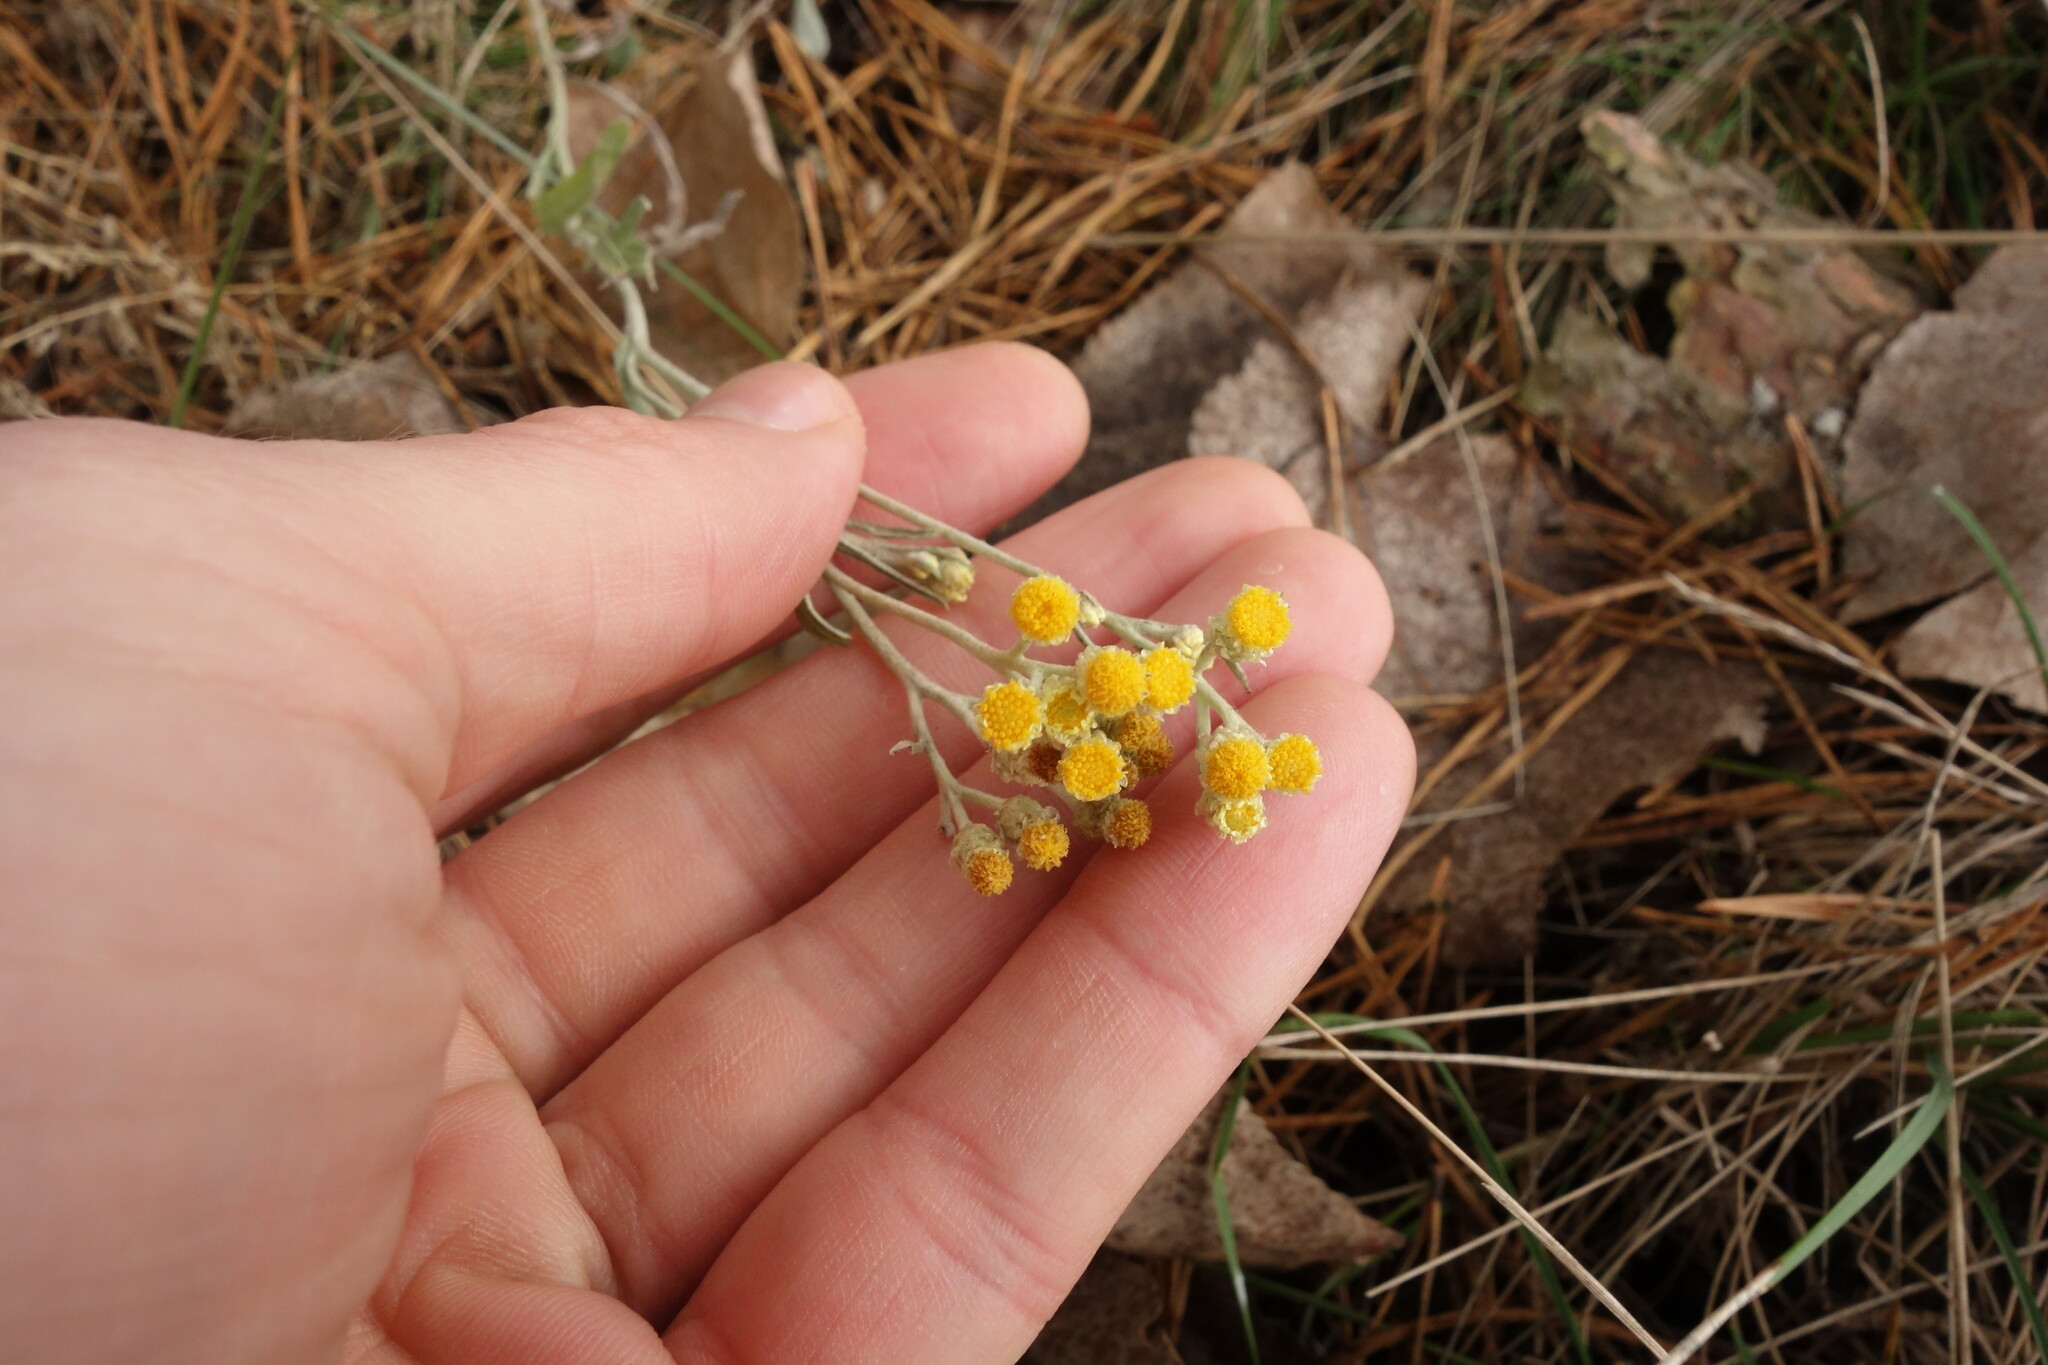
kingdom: Plantae
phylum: Tracheophyta
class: Magnoliopsida
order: Asterales
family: Asteraceae
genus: Helichrysum
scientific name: Helichrysum arenarium
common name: Strawflower
